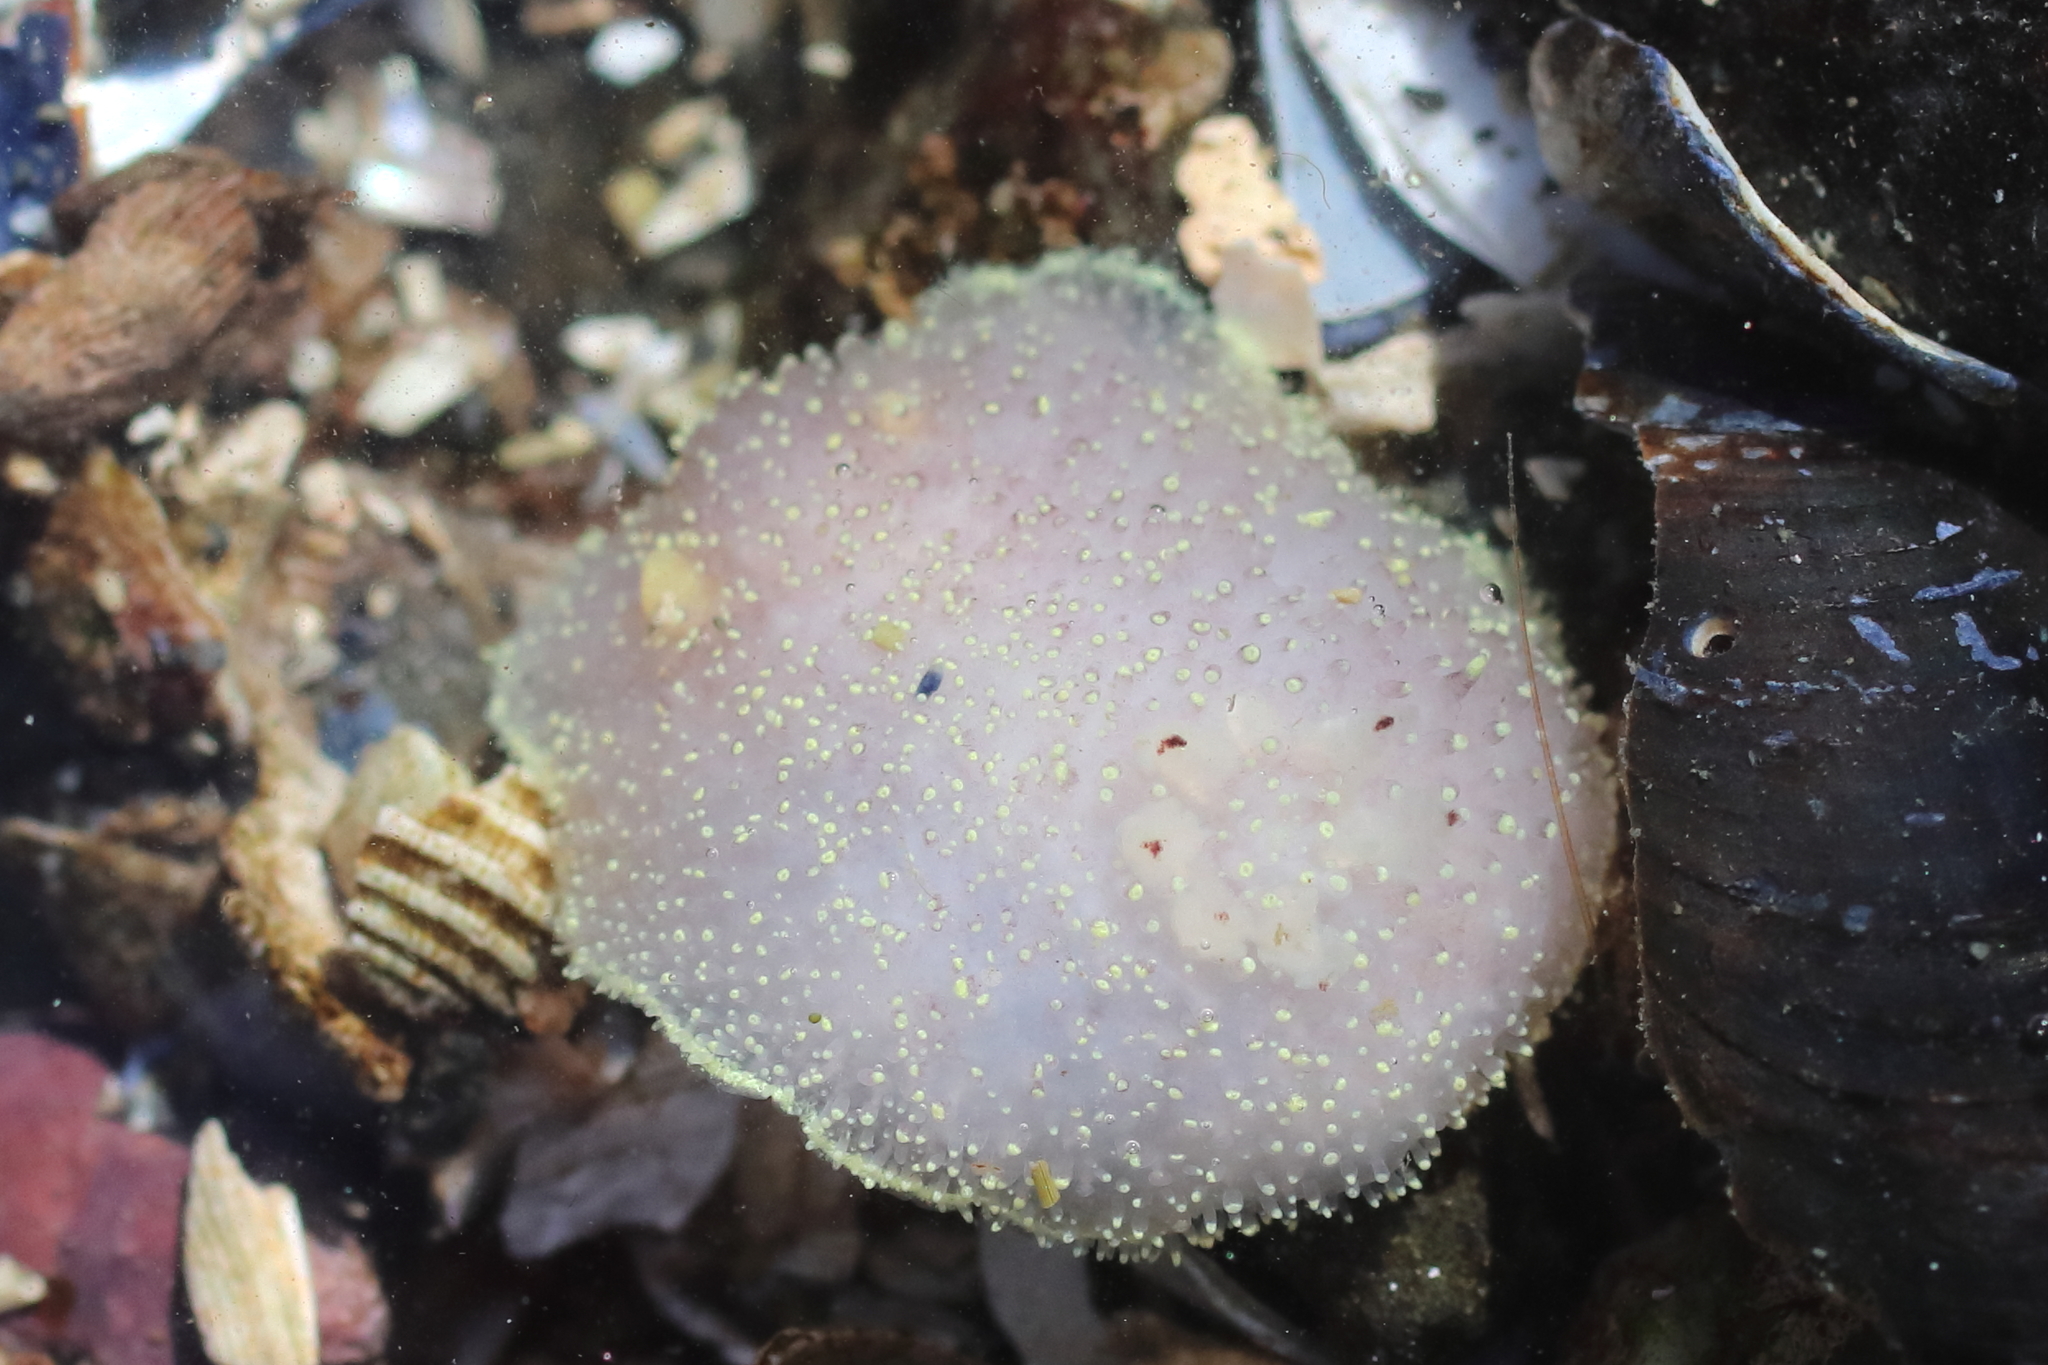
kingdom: Animalia
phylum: Mollusca
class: Gastropoda
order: Nudibranchia
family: Onchidorididae
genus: Acanthodoris
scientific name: Acanthodoris nanaimoensis
